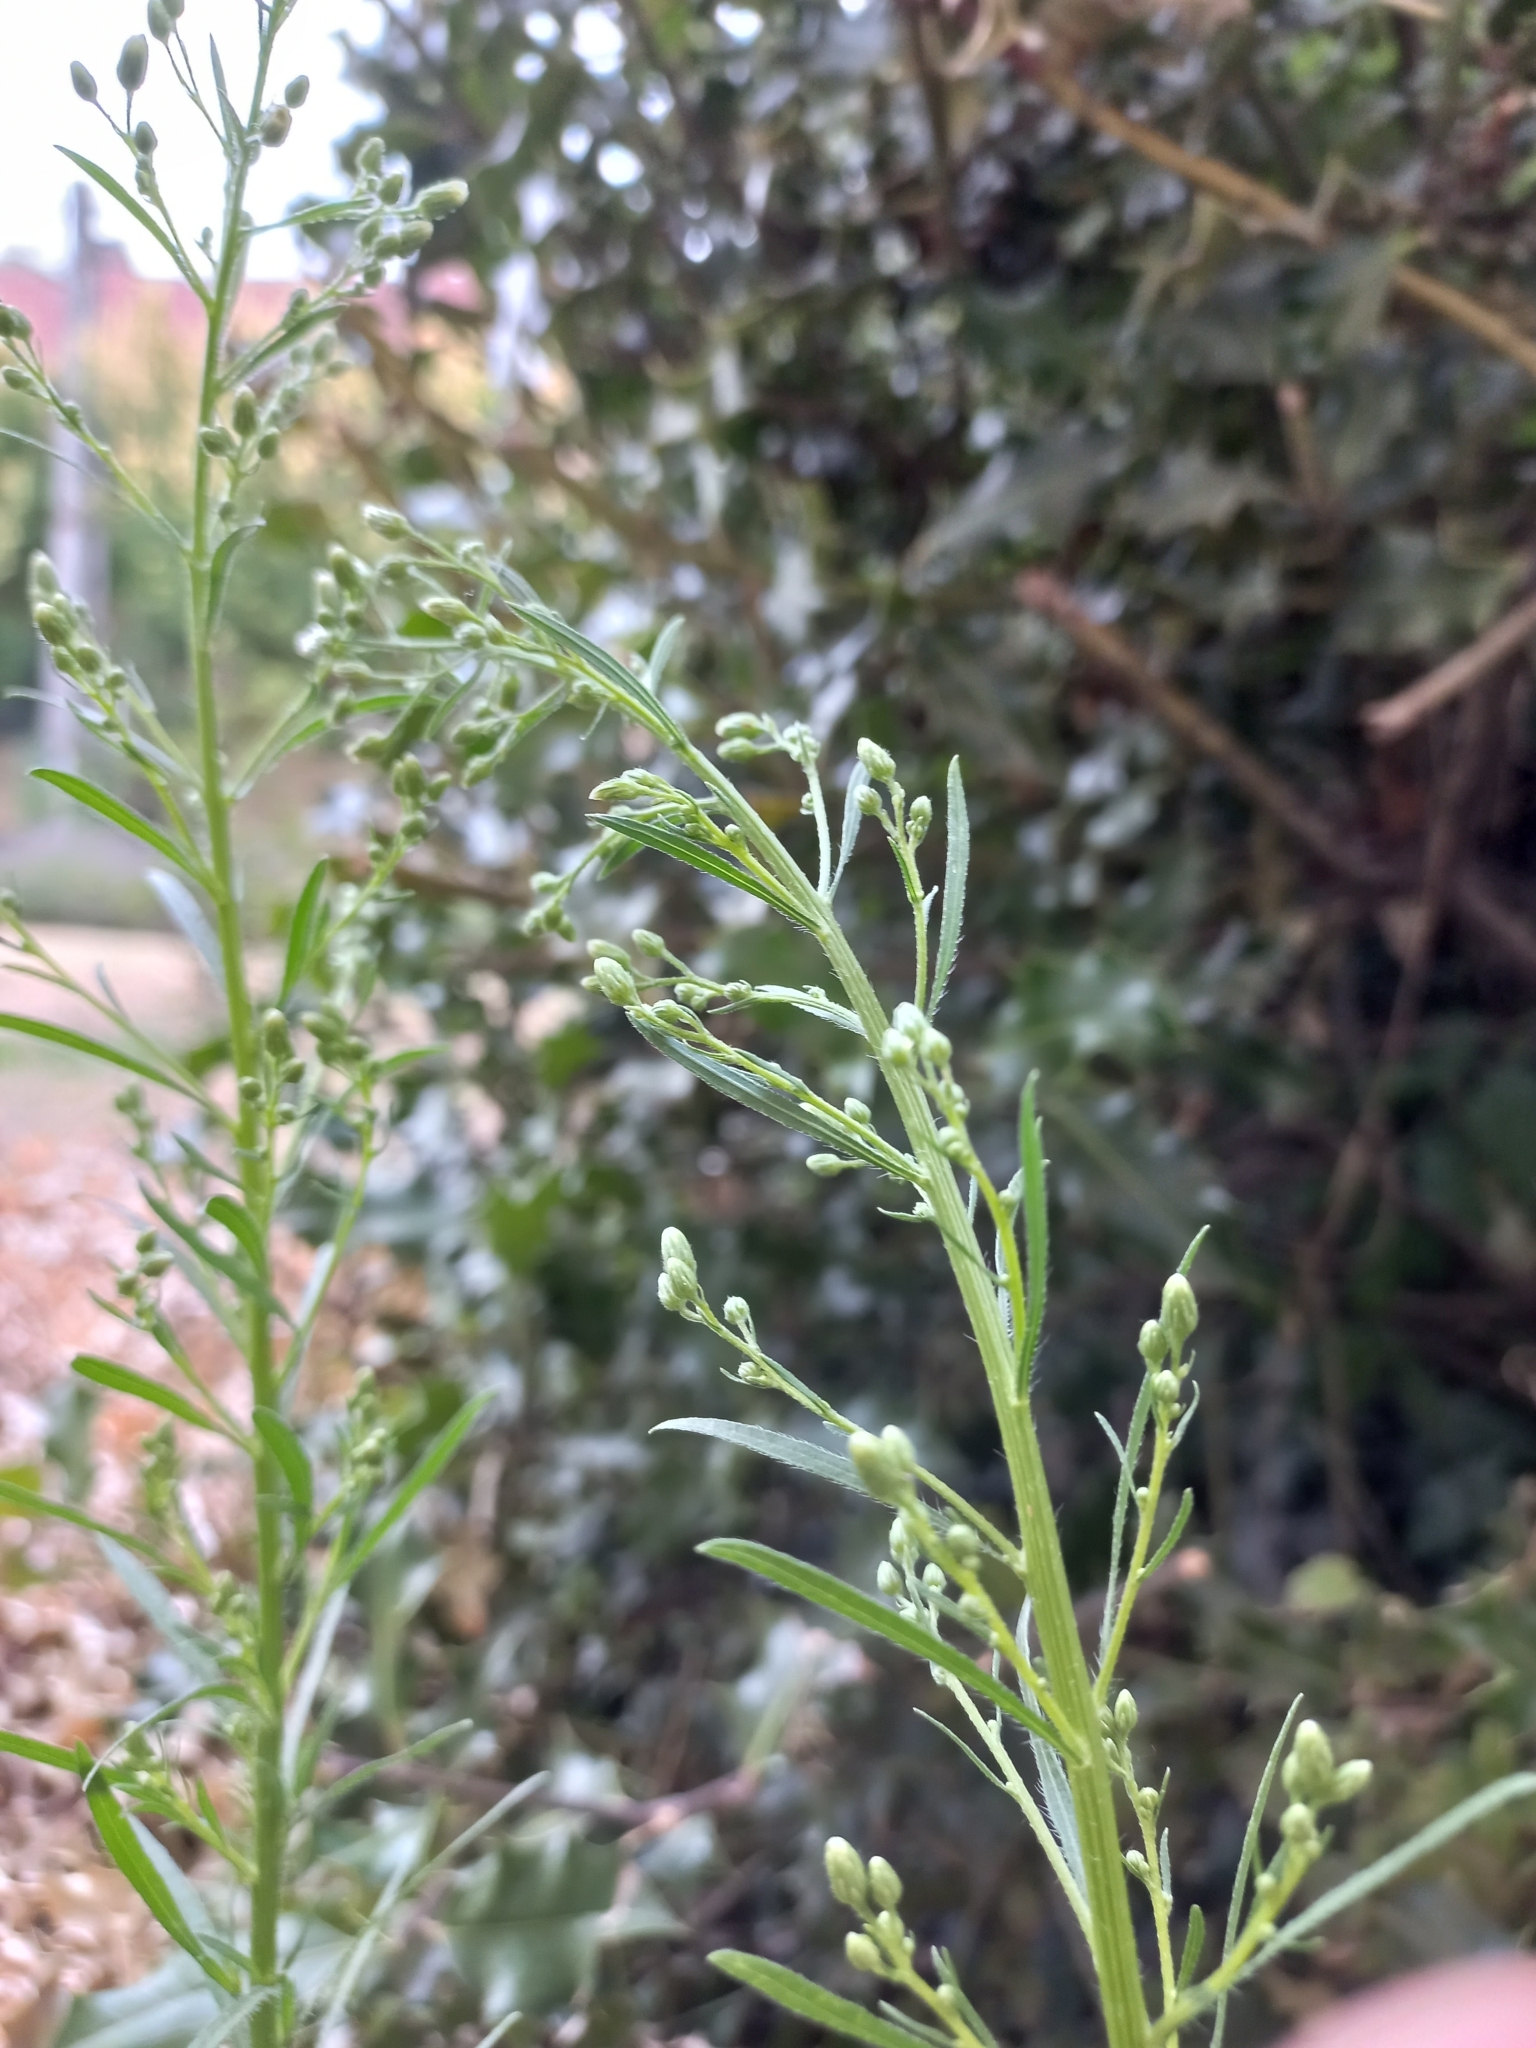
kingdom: Plantae
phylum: Tracheophyta
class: Magnoliopsida
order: Asterales
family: Asteraceae
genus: Erigeron
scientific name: Erigeron canadensis
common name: Canadian fleabane
